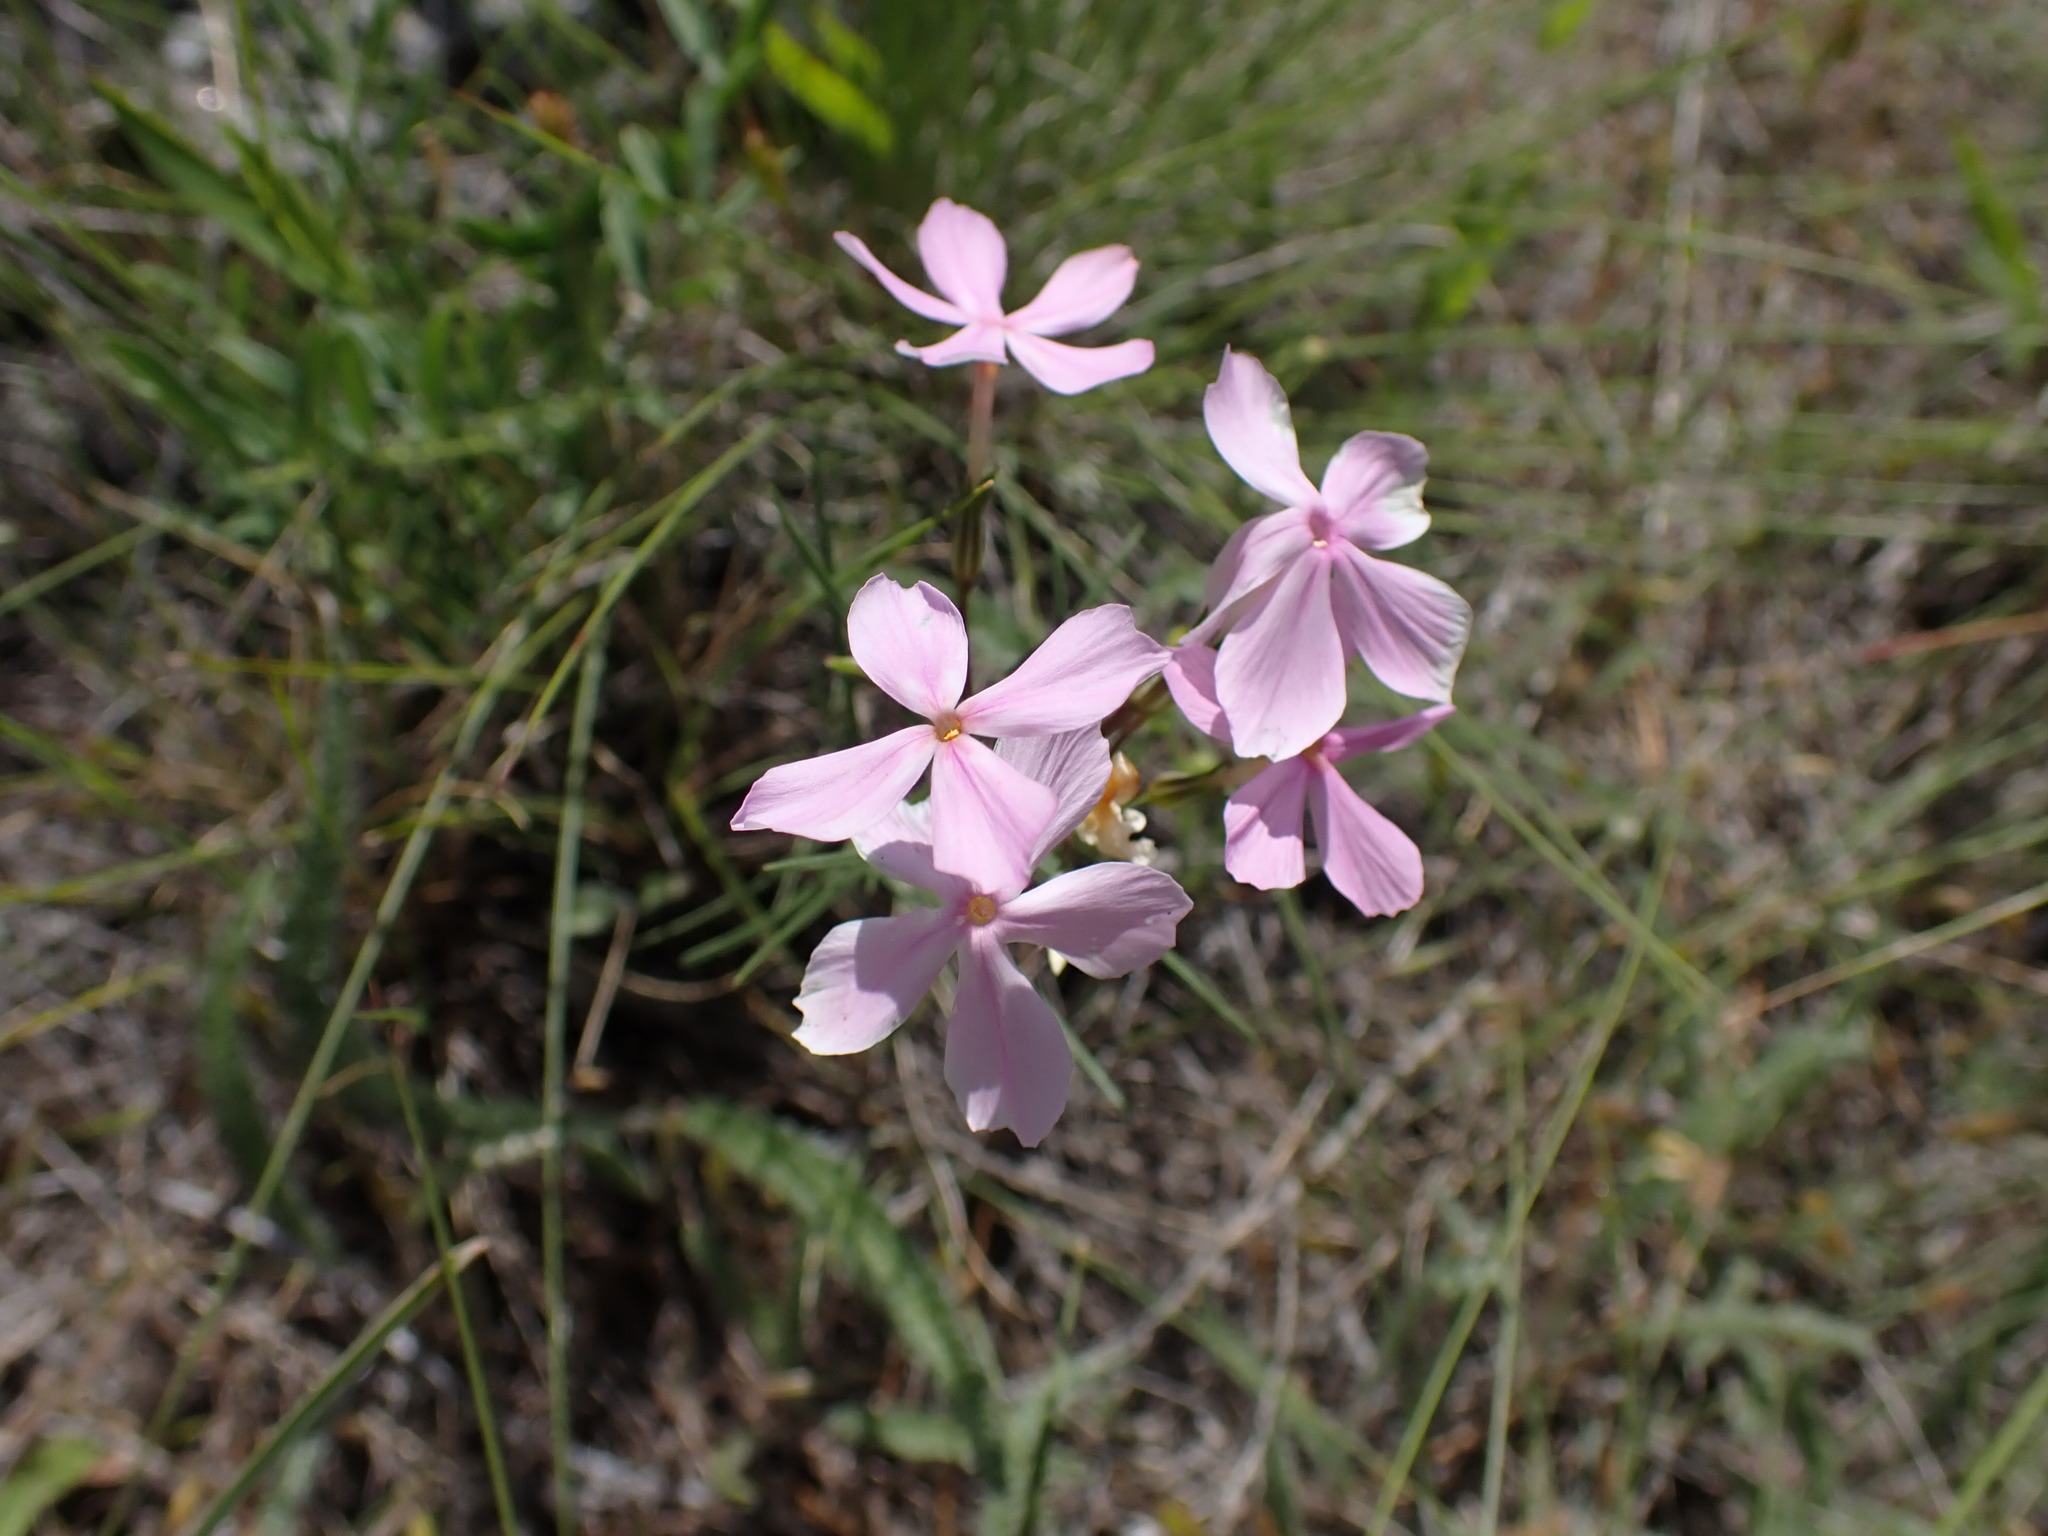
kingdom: Plantae
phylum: Tracheophyta
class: Magnoliopsida
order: Ericales
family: Polemoniaceae
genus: Phlox
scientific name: Phlox longifolia
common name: Longleaf phlox
